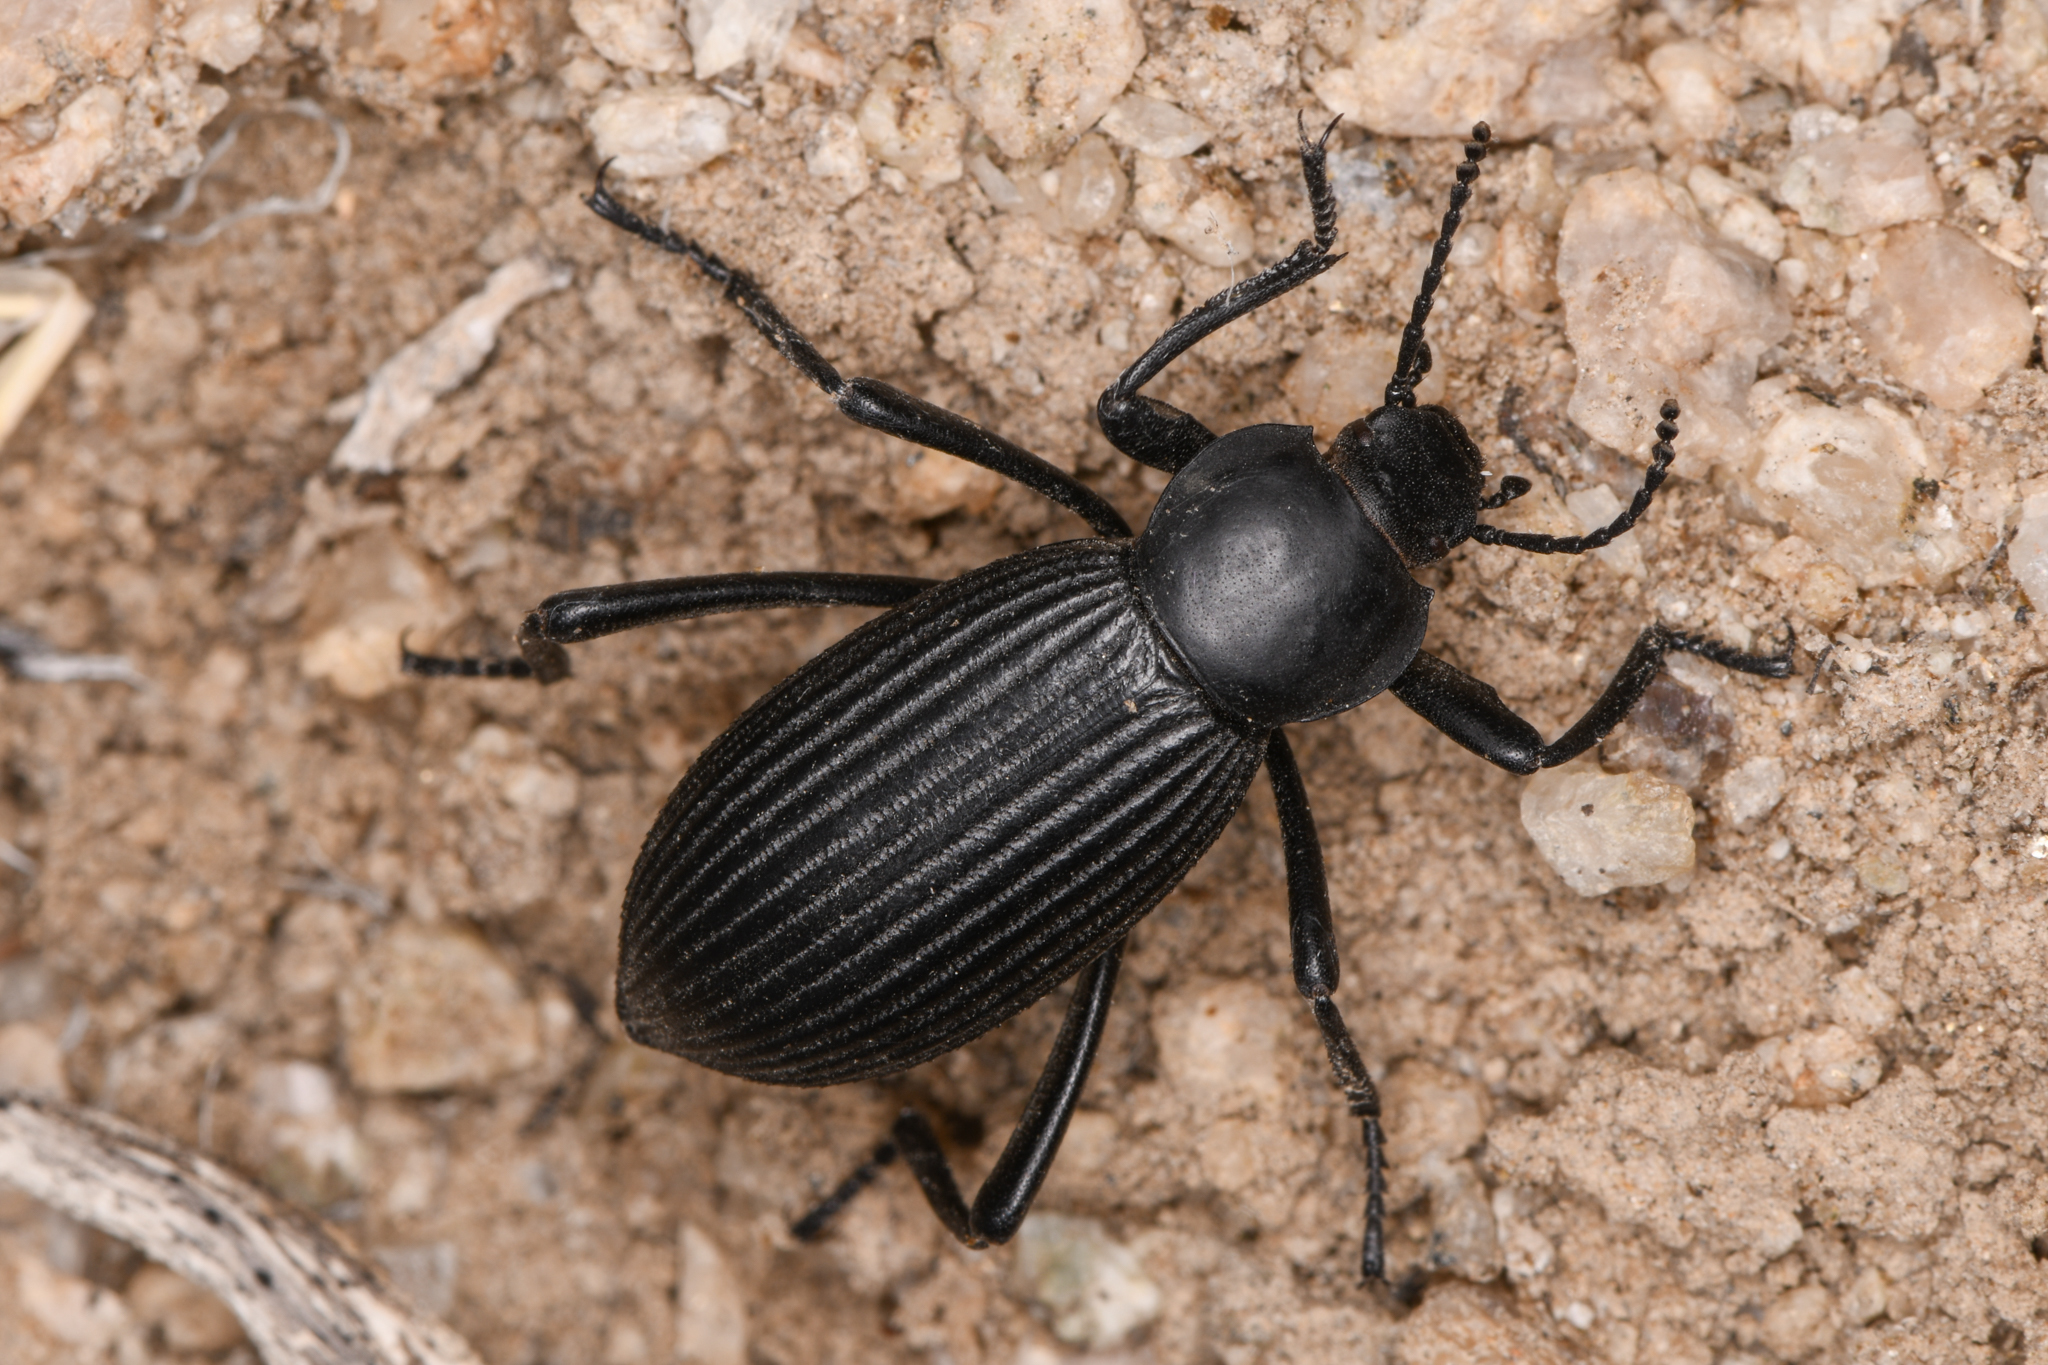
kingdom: Animalia
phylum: Arthropoda
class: Insecta
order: Coleoptera
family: Tenebrionidae
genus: Eleodes
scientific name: Eleodes hispilabris
